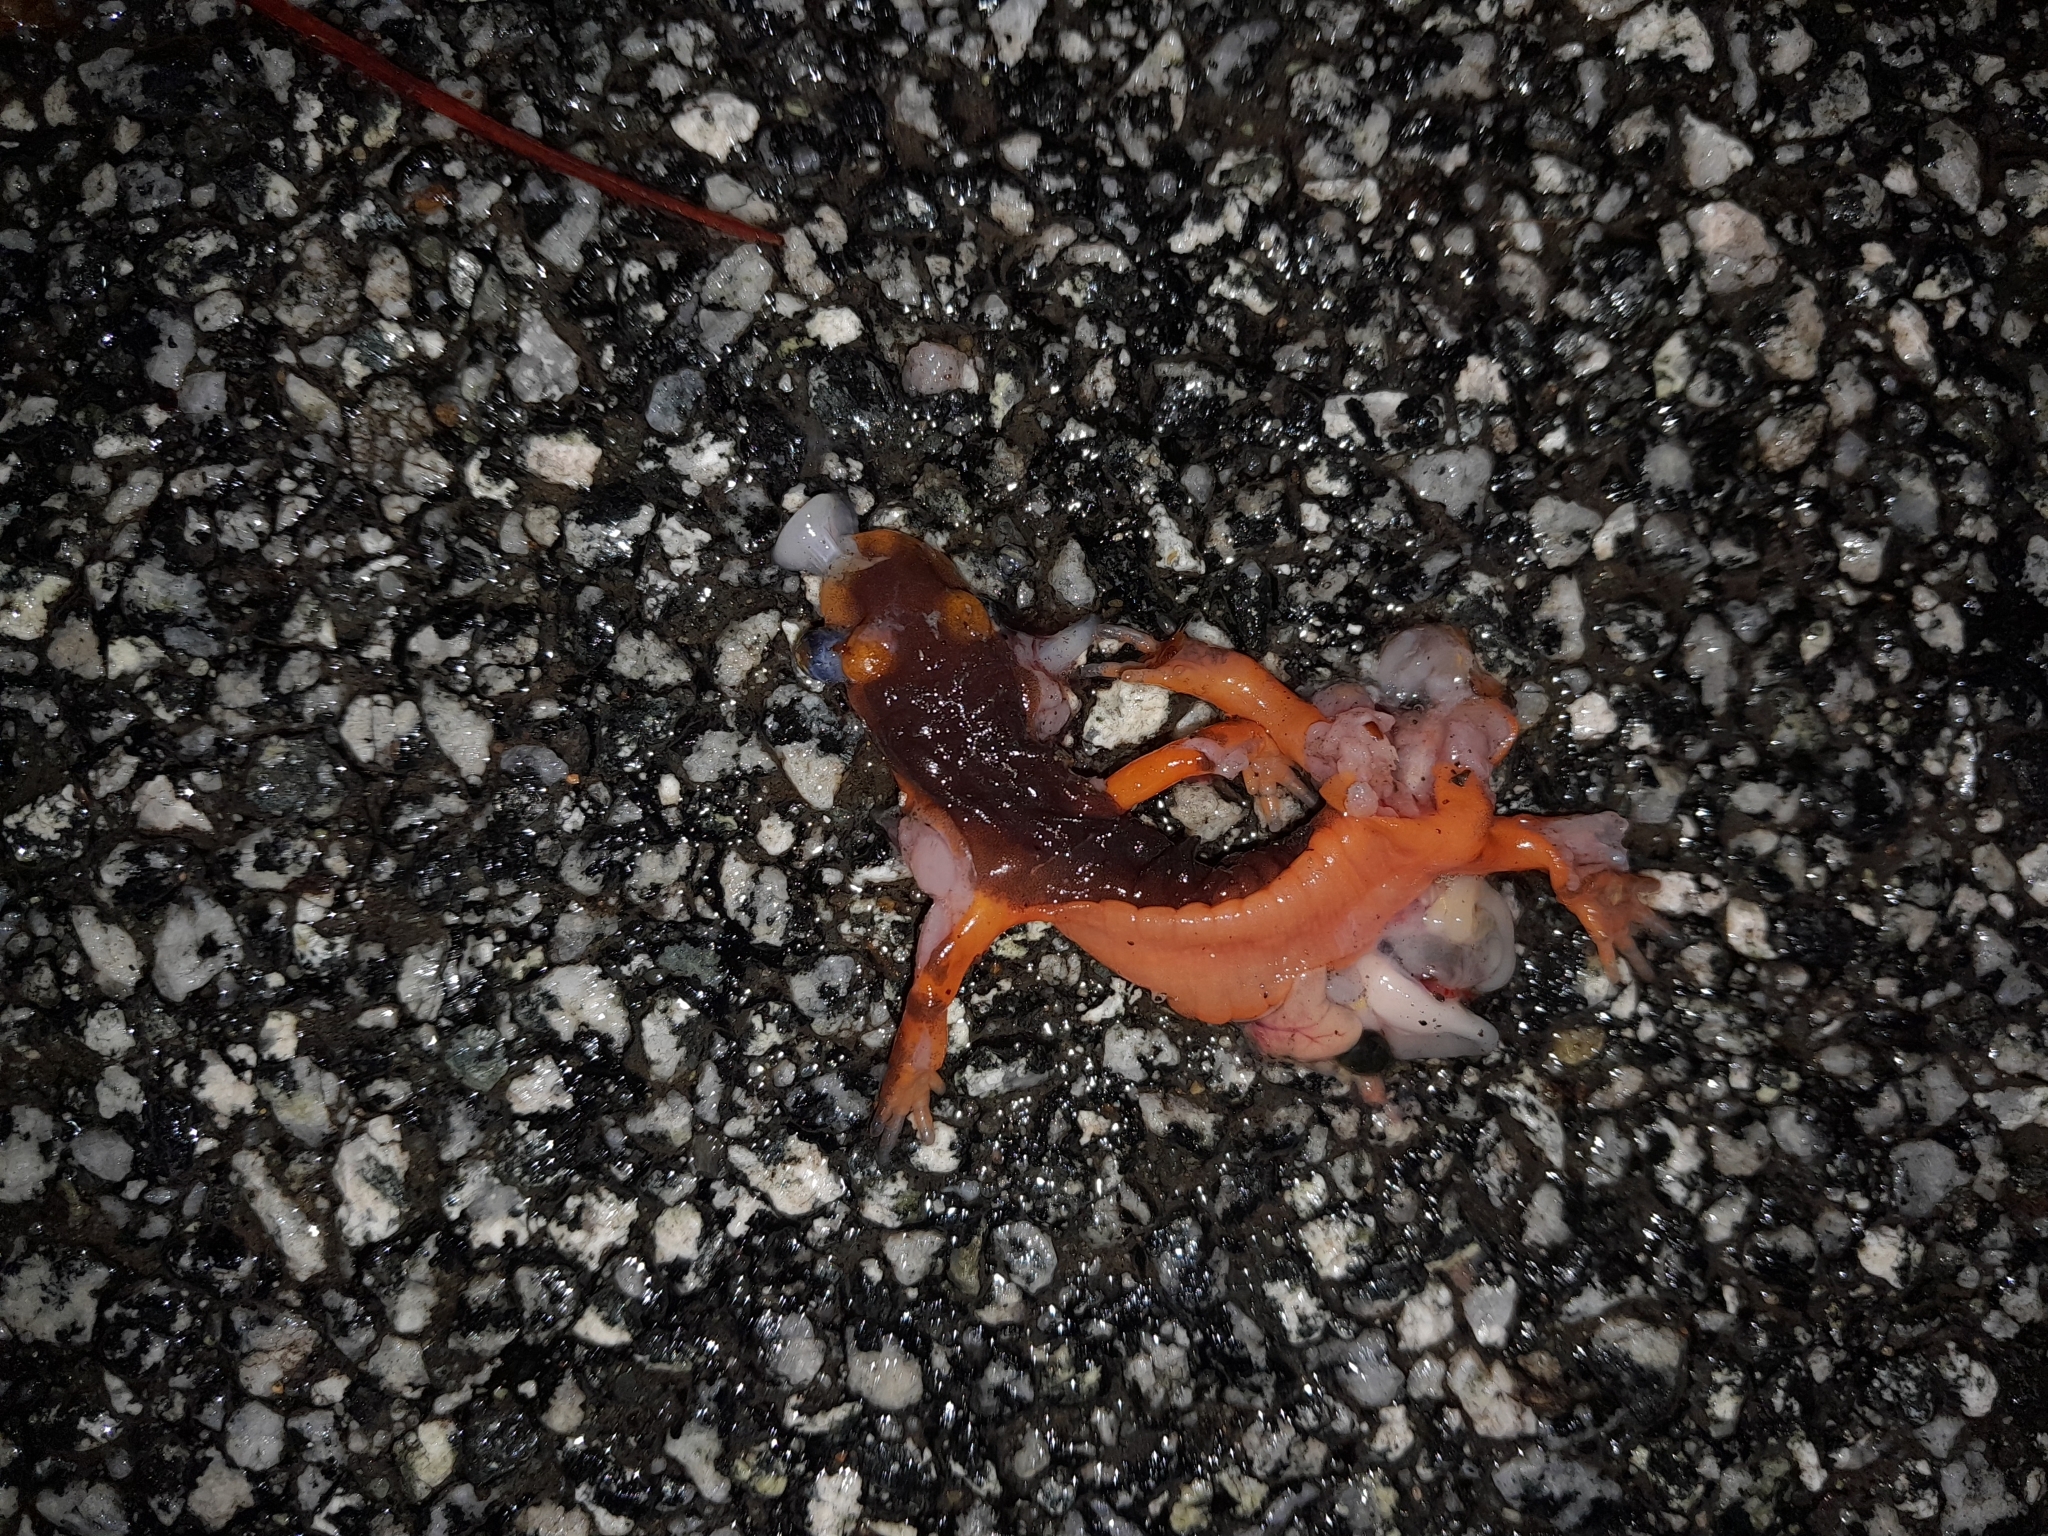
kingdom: Animalia
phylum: Chordata
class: Amphibia
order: Caudata
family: Plethodontidae
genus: Ensatina
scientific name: Ensatina eschscholtzii
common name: Ensatina
